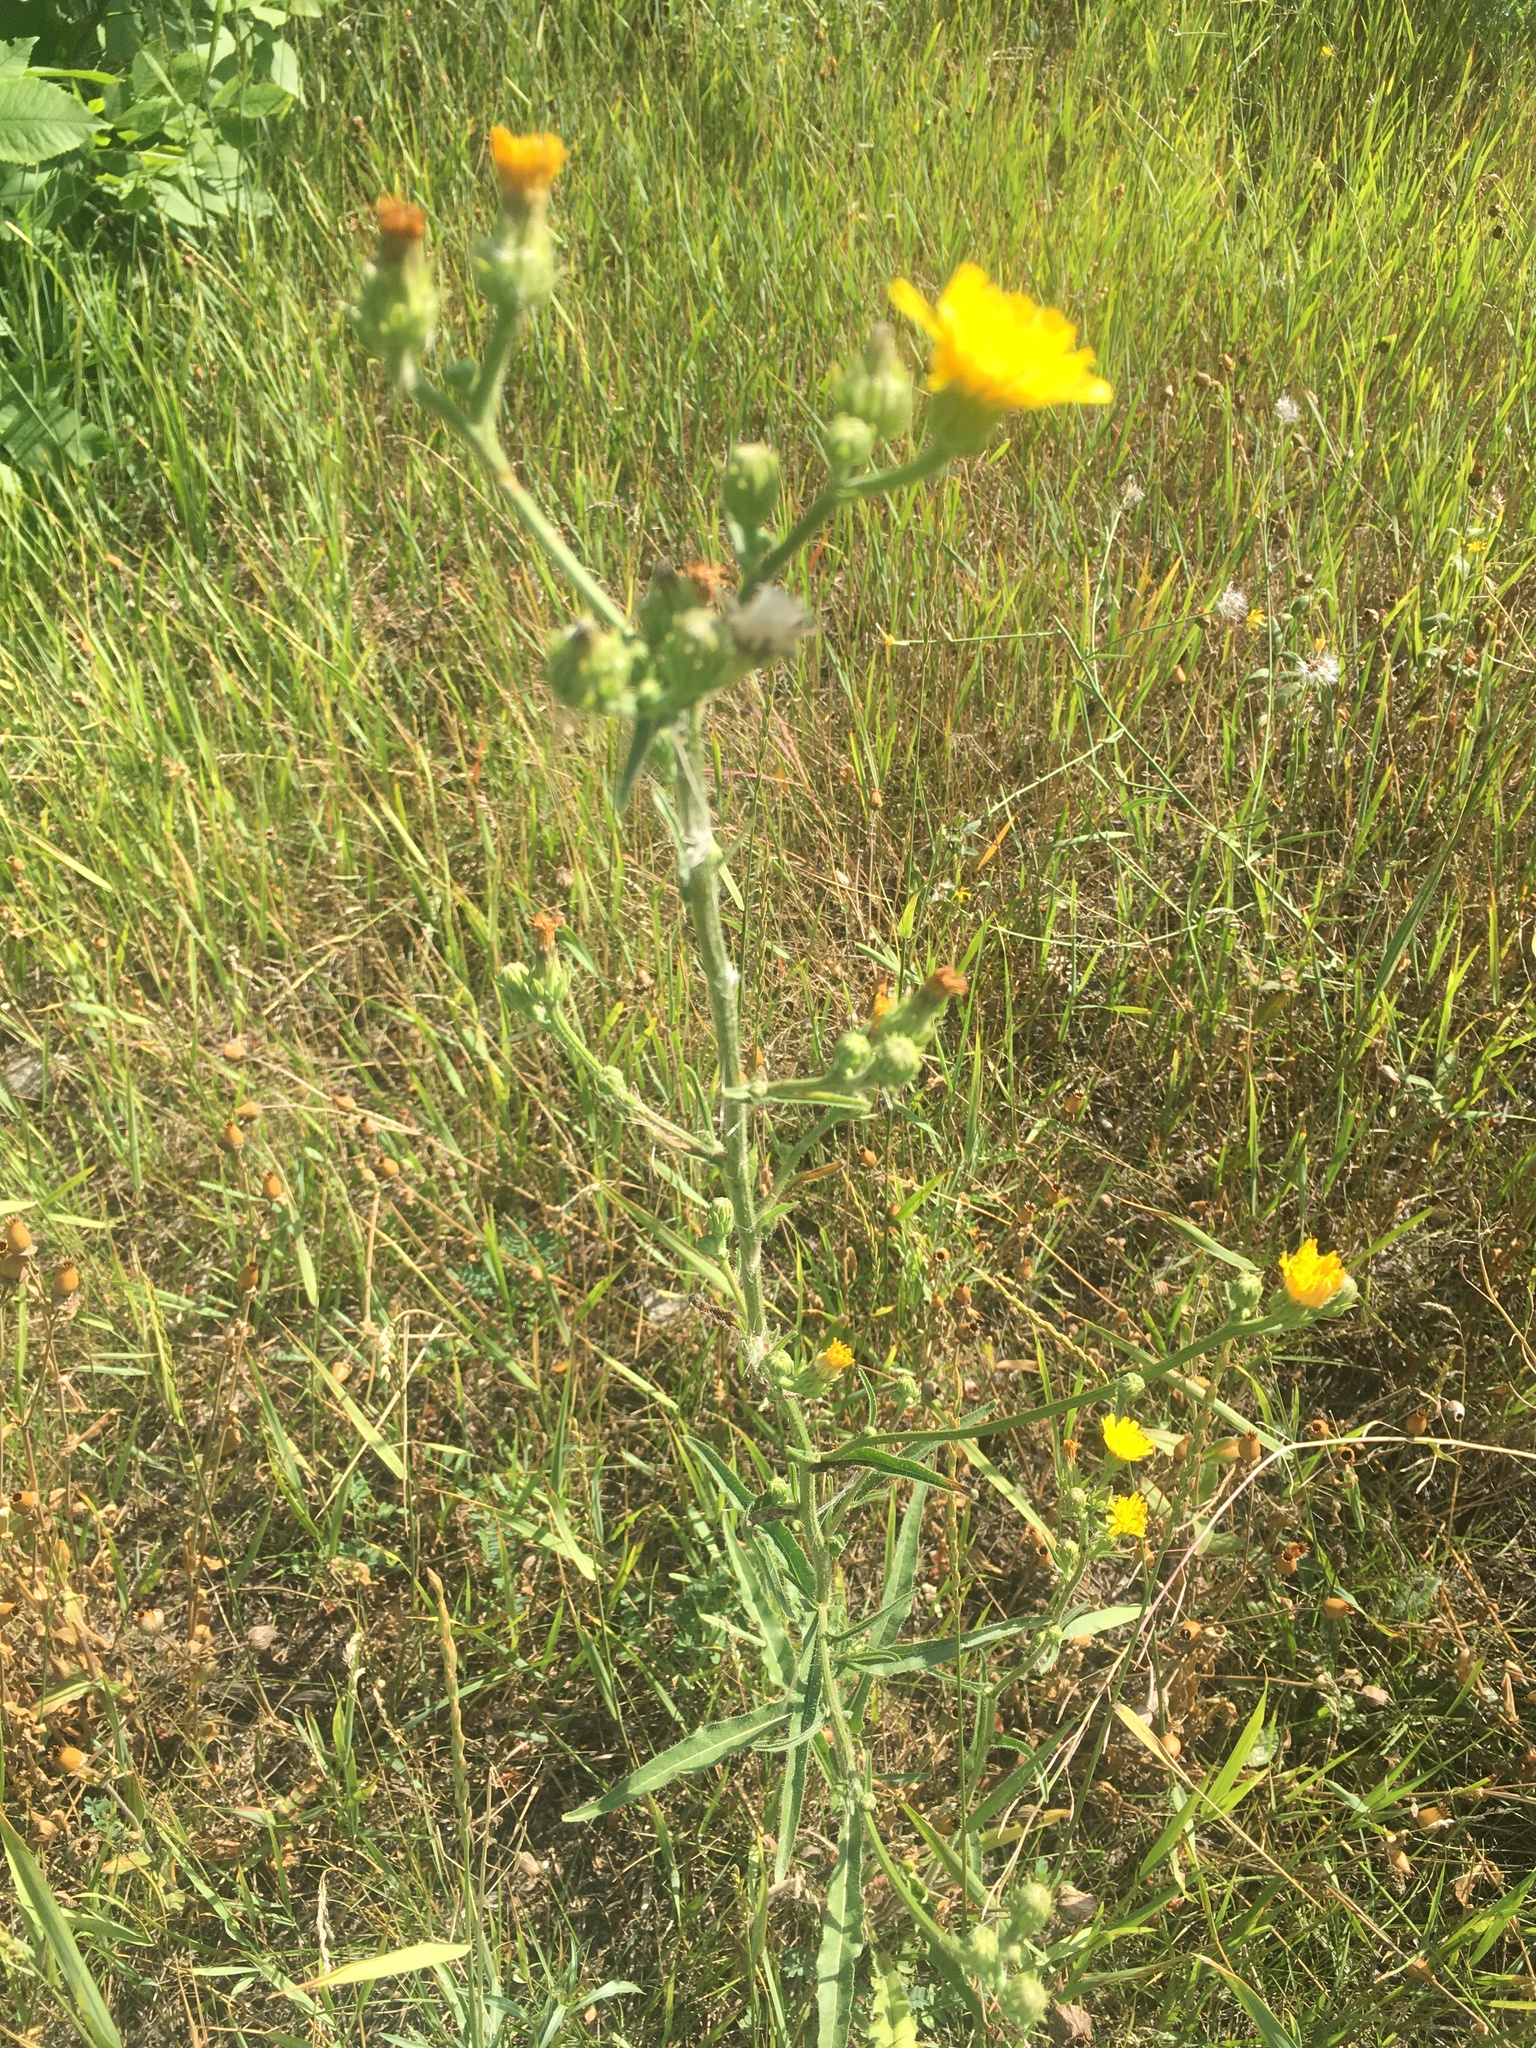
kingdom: Plantae
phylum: Tracheophyta
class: Magnoliopsida
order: Asterales
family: Asteraceae
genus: Picris
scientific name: Picris hieracioides
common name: Hawkweed oxtongue
